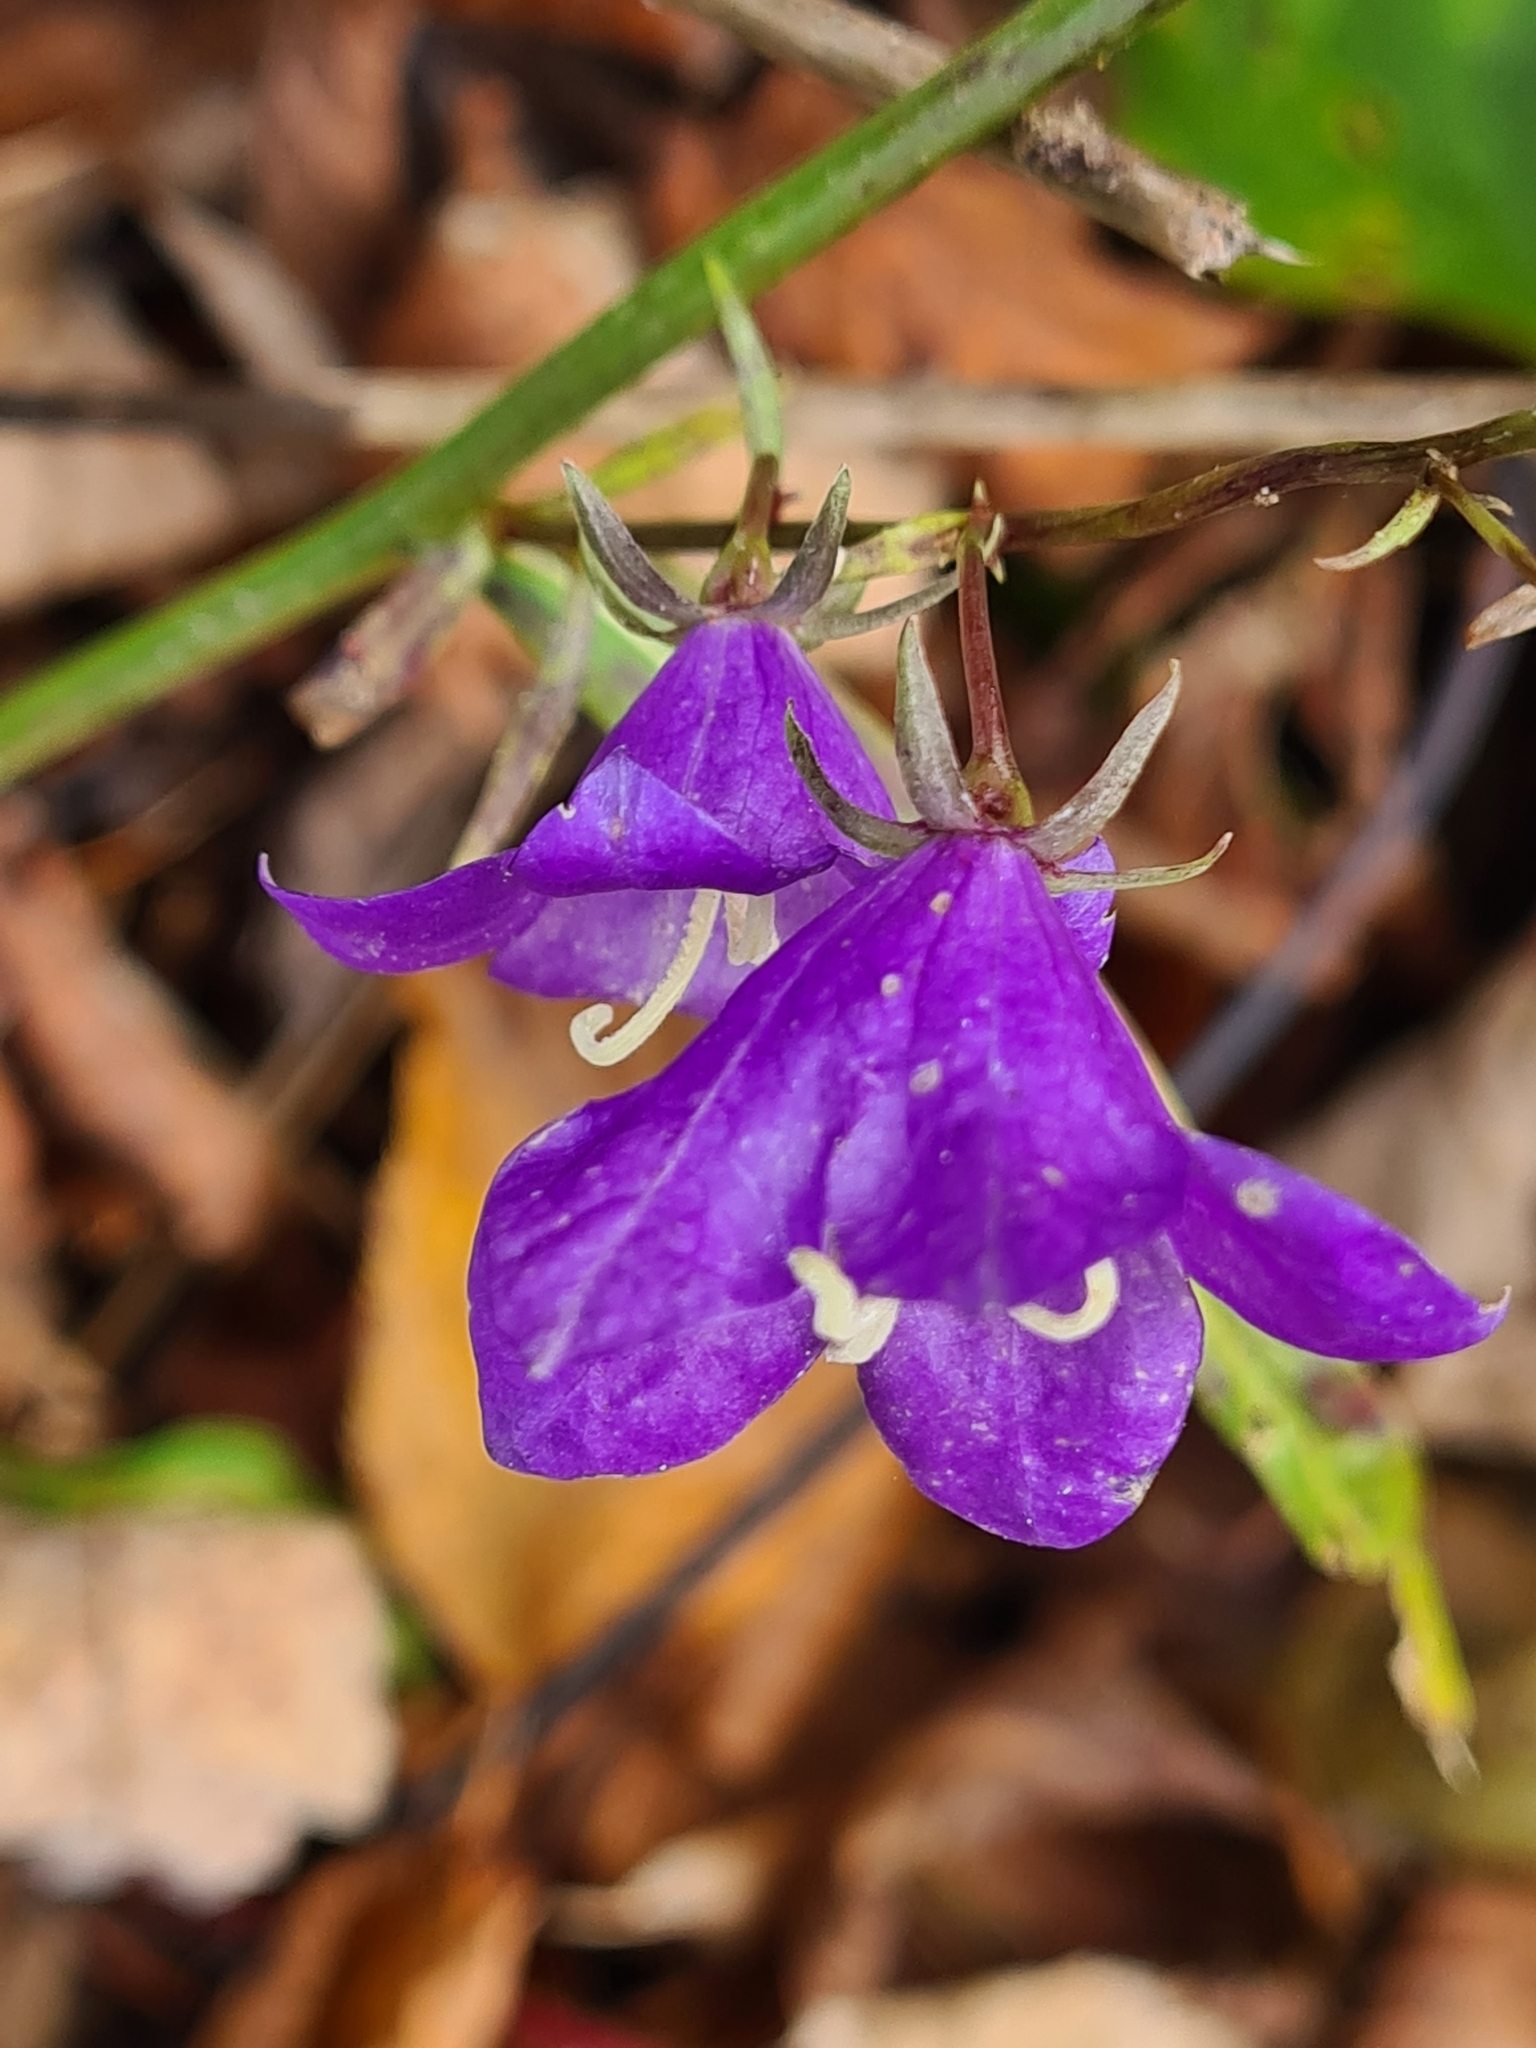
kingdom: Plantae
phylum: Tracheophyta
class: Magnoliopsida
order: Asterales
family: Campanulaceae
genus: Campanula
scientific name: Campanula persicifolia
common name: Peach-leaved bellflower
